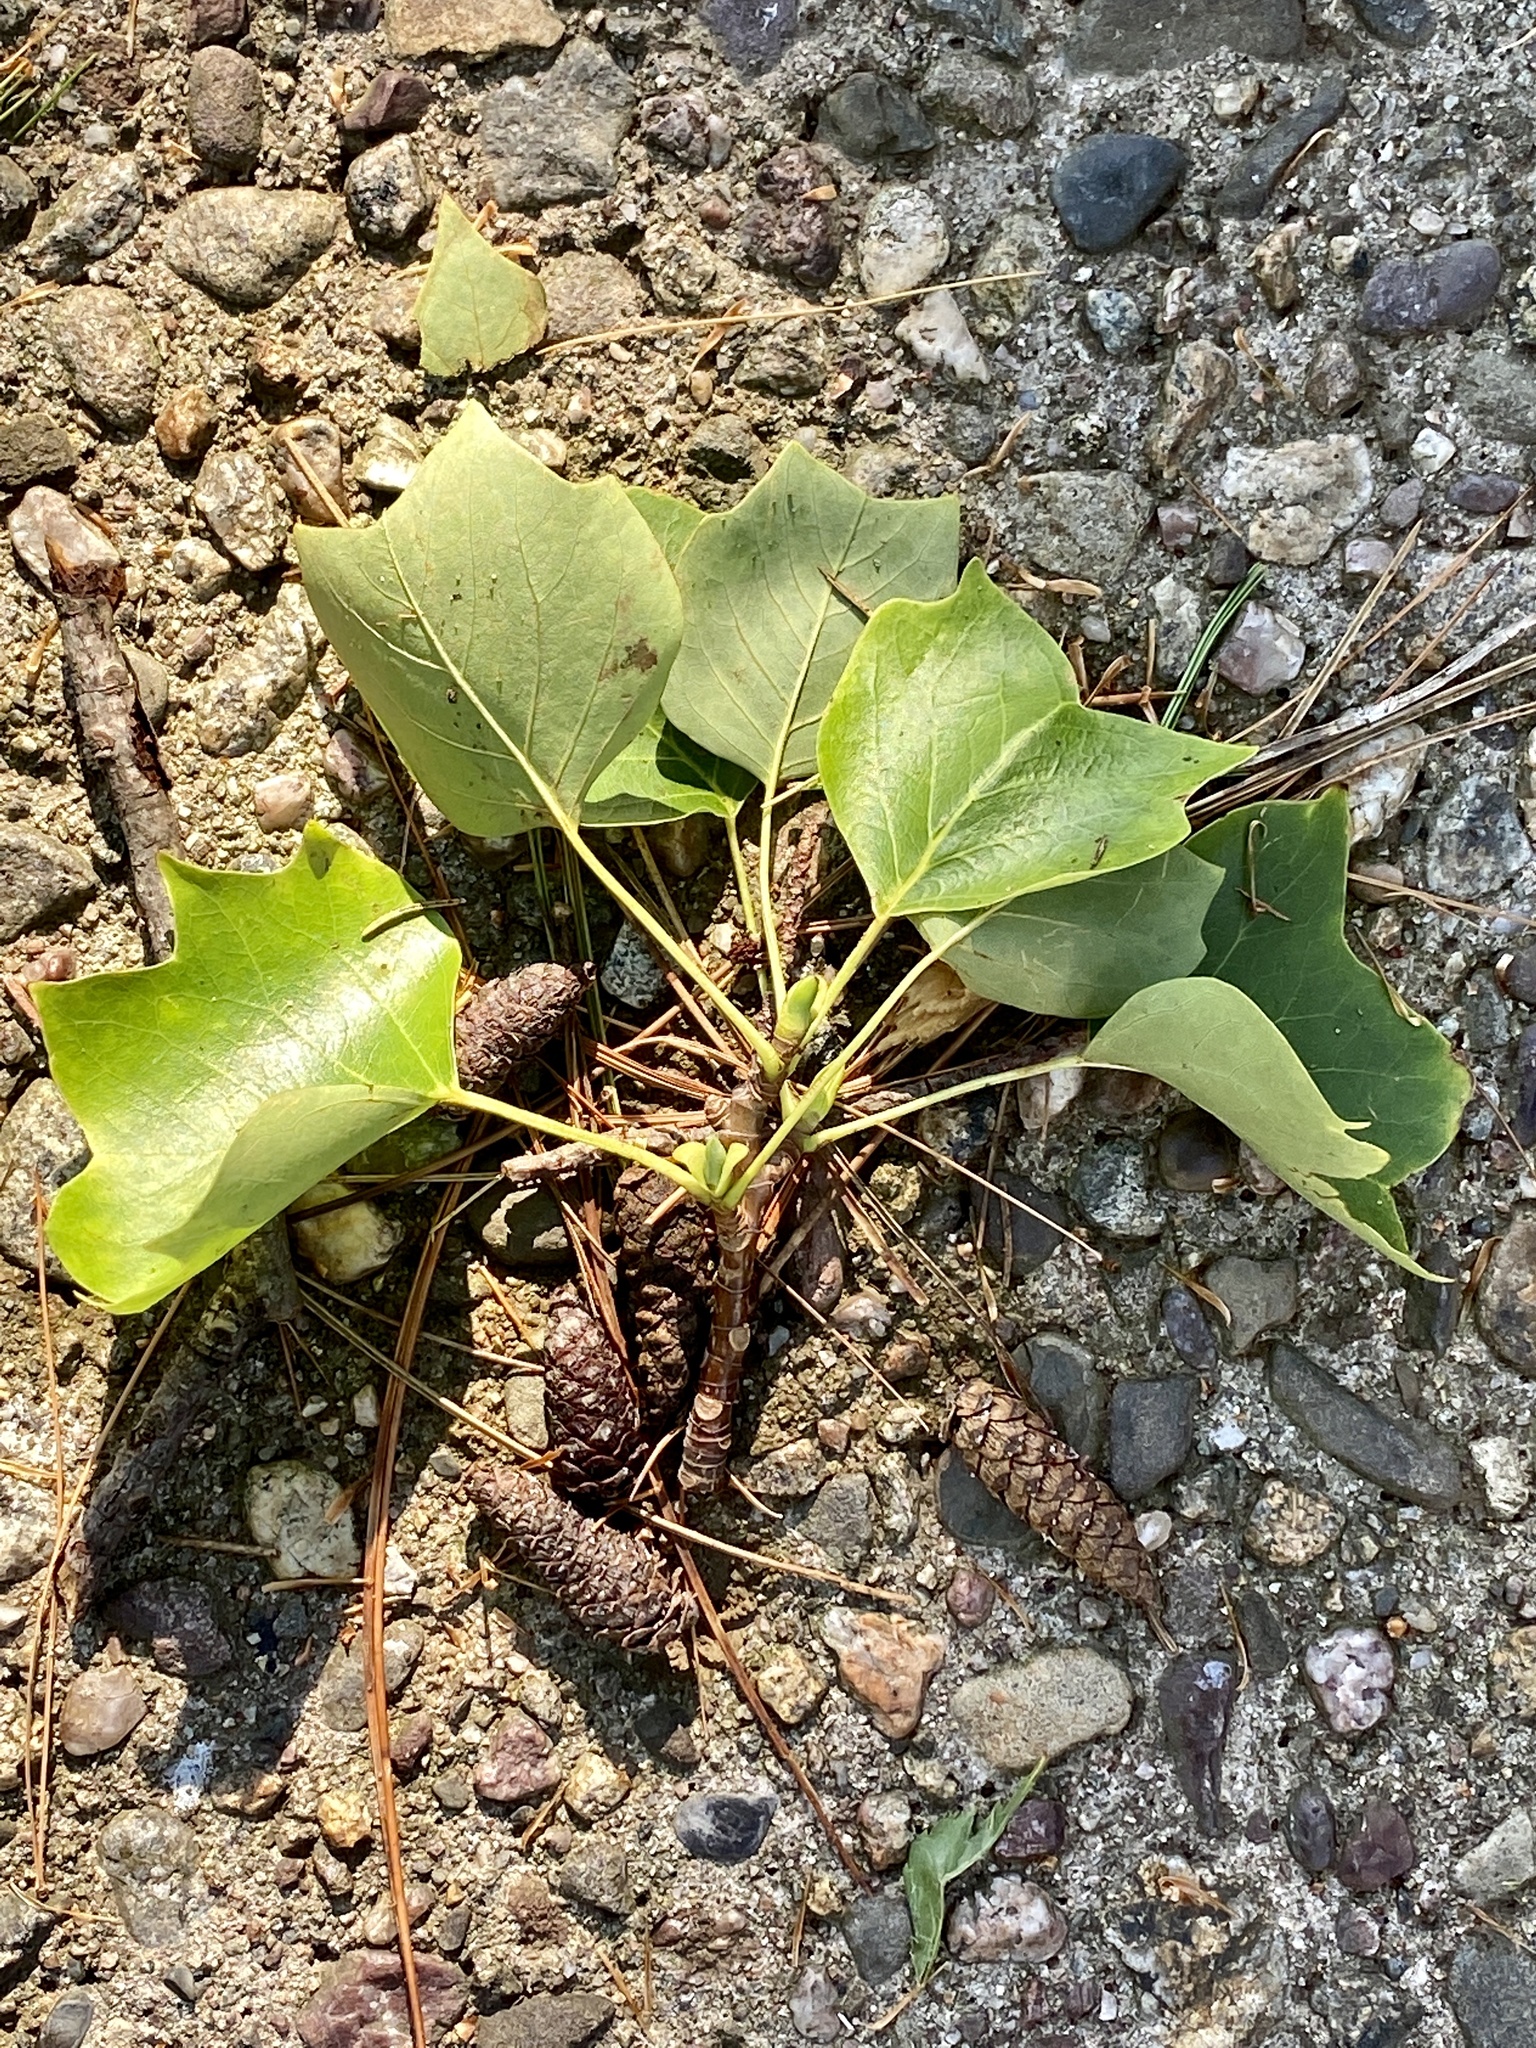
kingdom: Plantae
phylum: Tracheophyta
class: Magnoliopsida
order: Magnoliales
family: Magnoliaceae
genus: Liriodendron
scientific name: Liriodendron tulipifera
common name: Tulip tree
